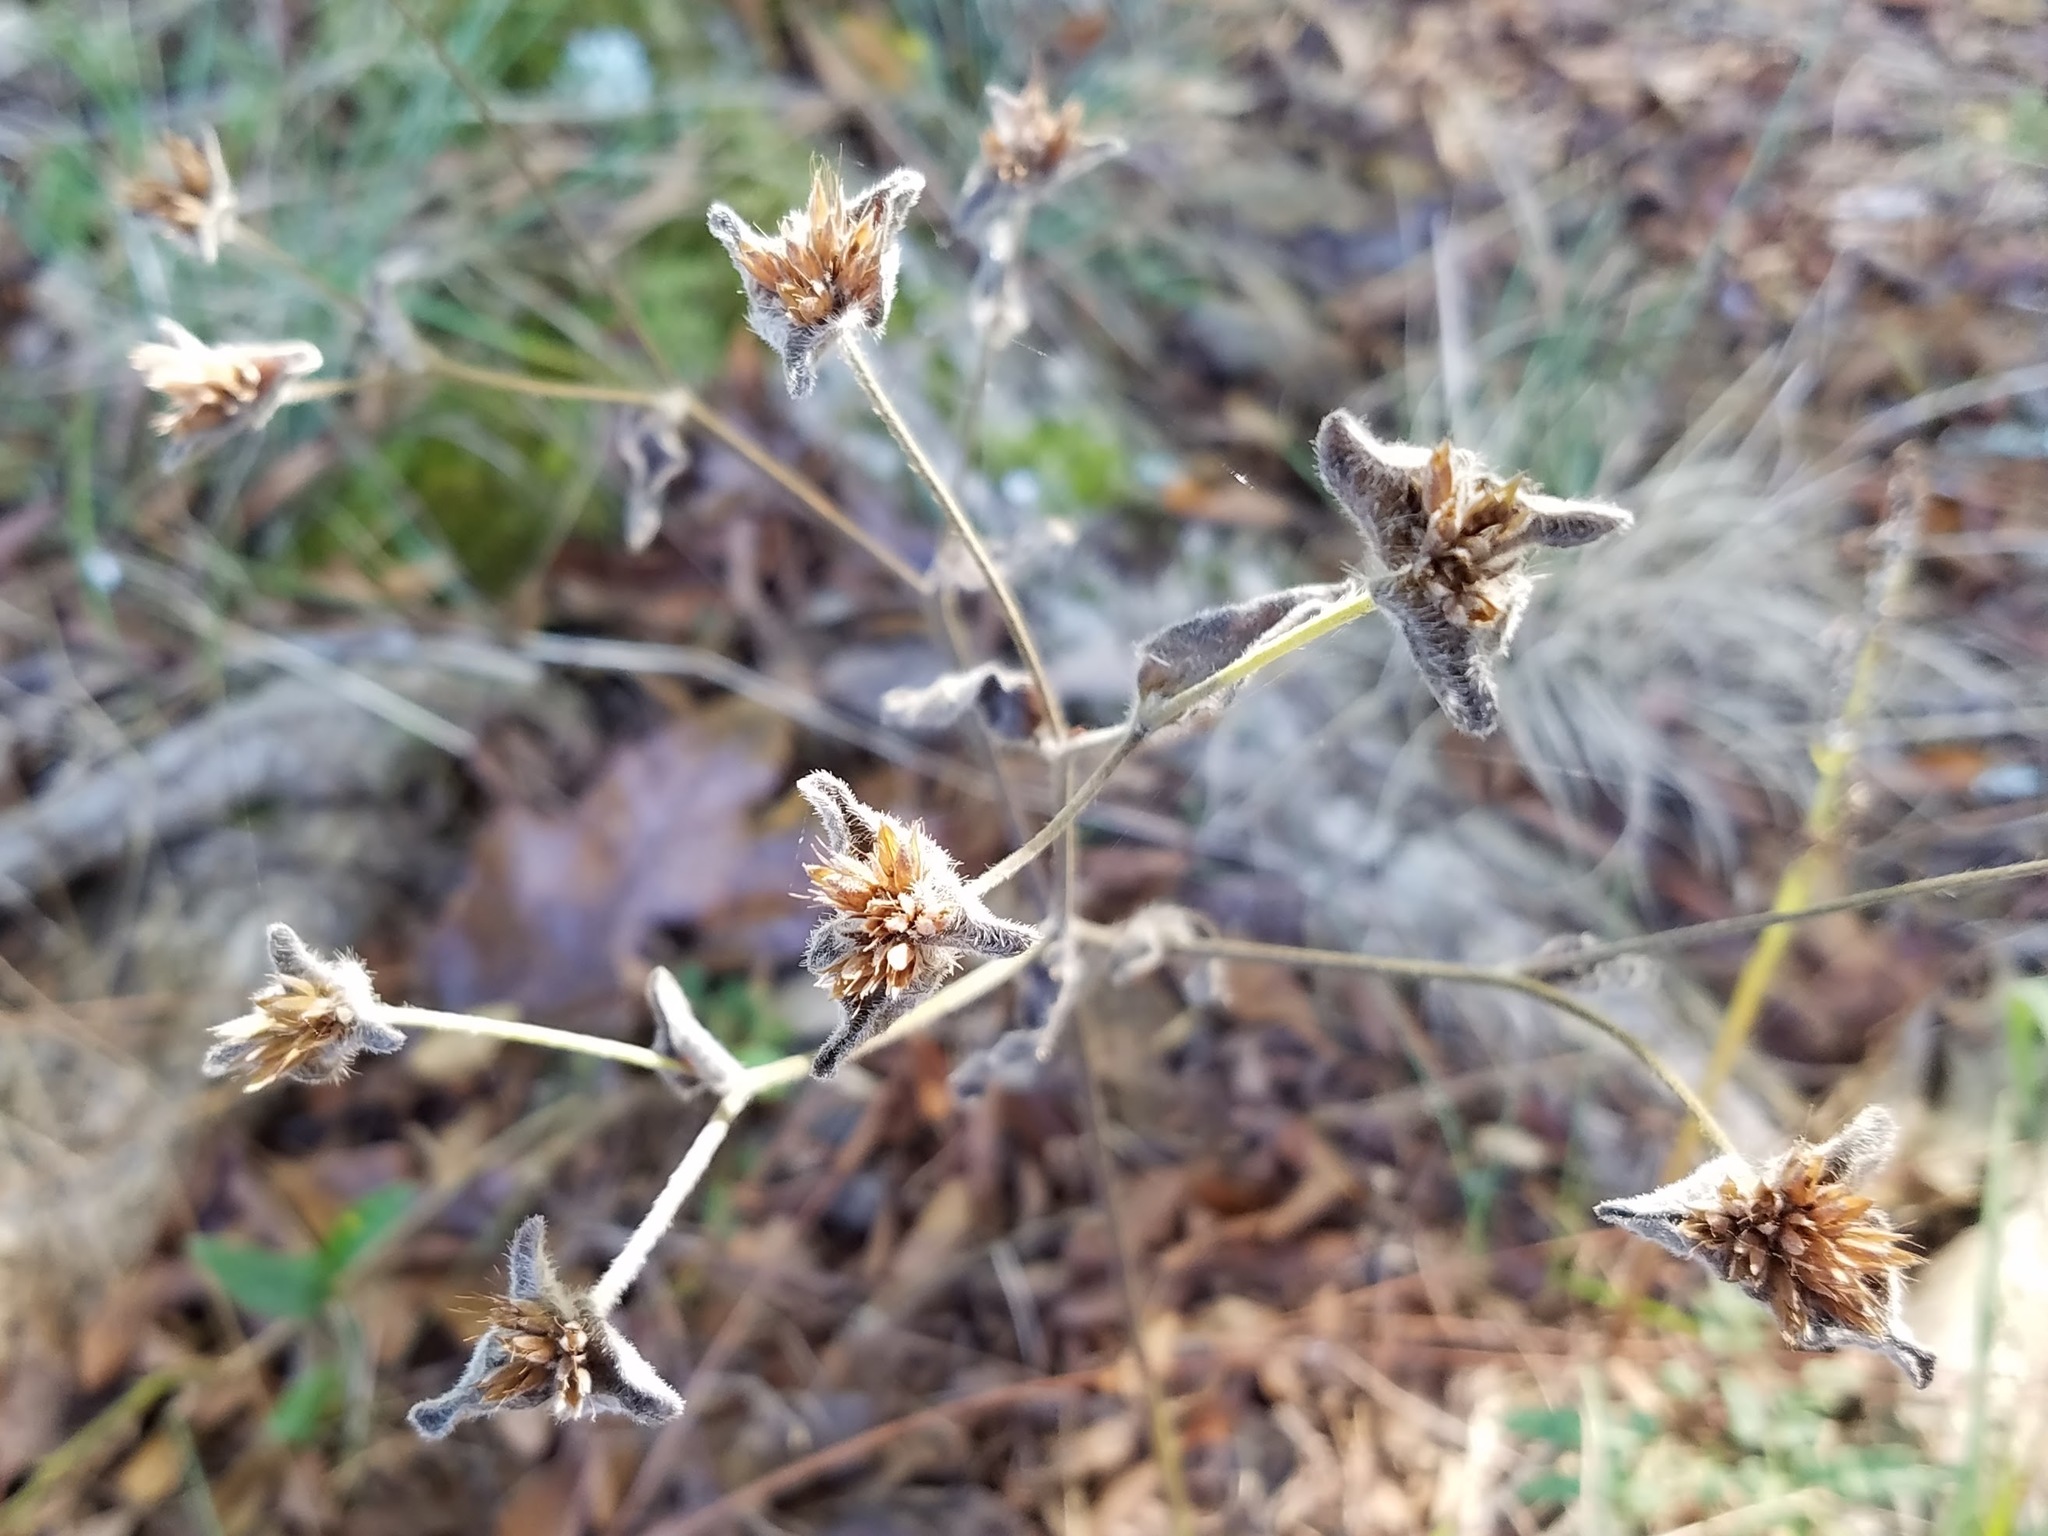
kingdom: Plantae
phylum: Tracheophyta
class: Magnoliopsida
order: Asterales
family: Asteraceae
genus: Elephantopus
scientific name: Elephantopus tomentosus
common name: Tobacco-weed
